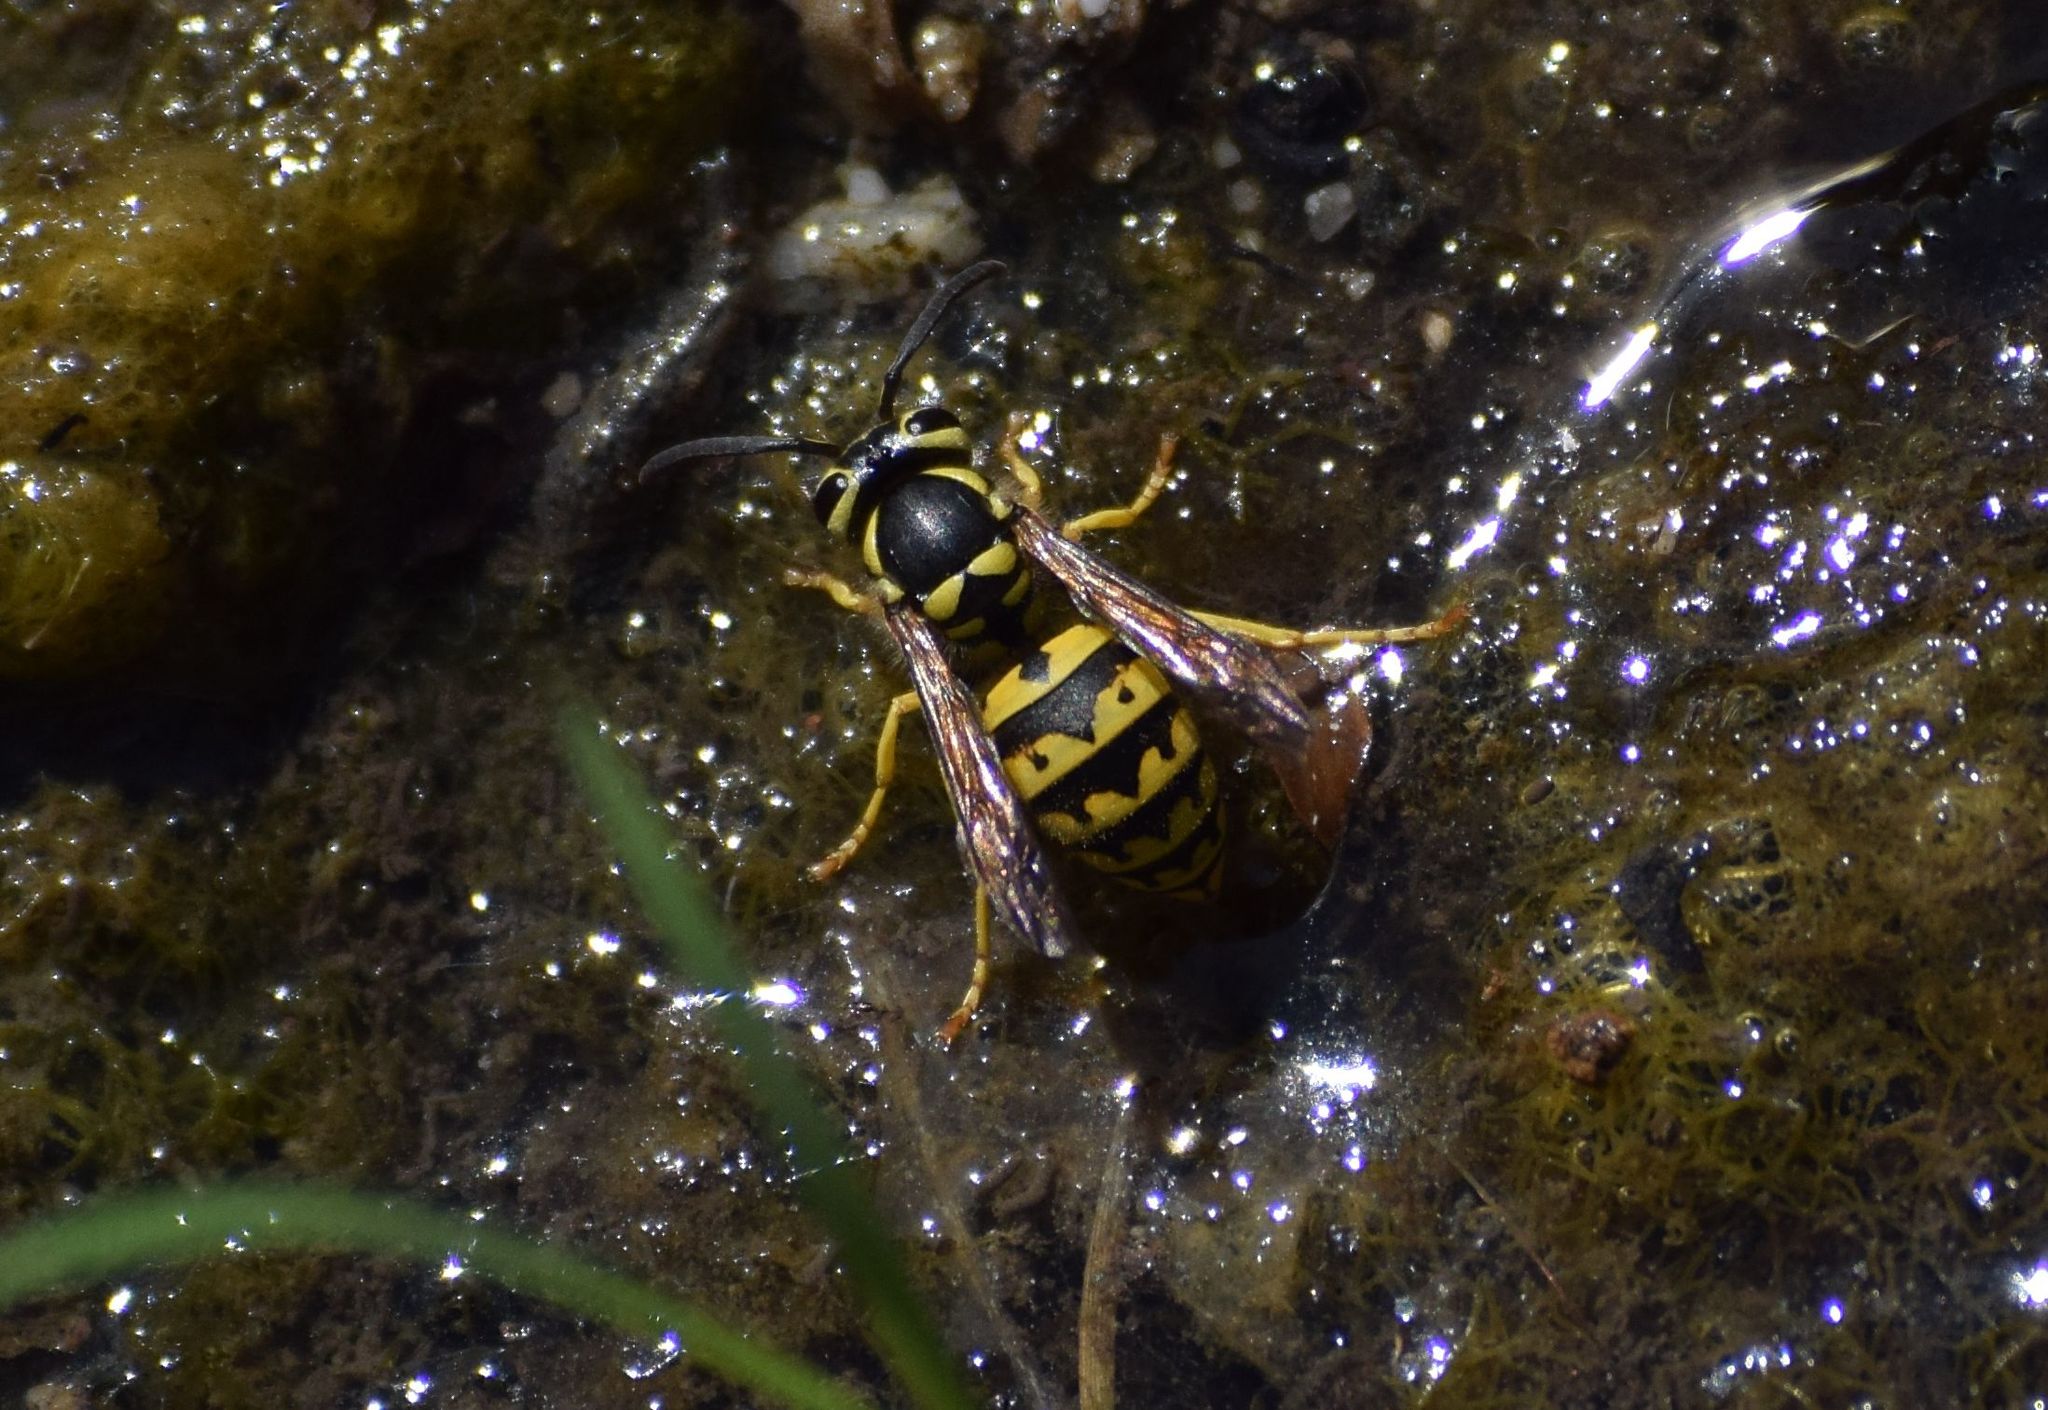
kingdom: Animalia
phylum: Arthropoda
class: Insecta
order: Hymenoptera
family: Vespidae
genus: Vespula
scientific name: Vespula pensylvanica
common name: Western yellowjacket
